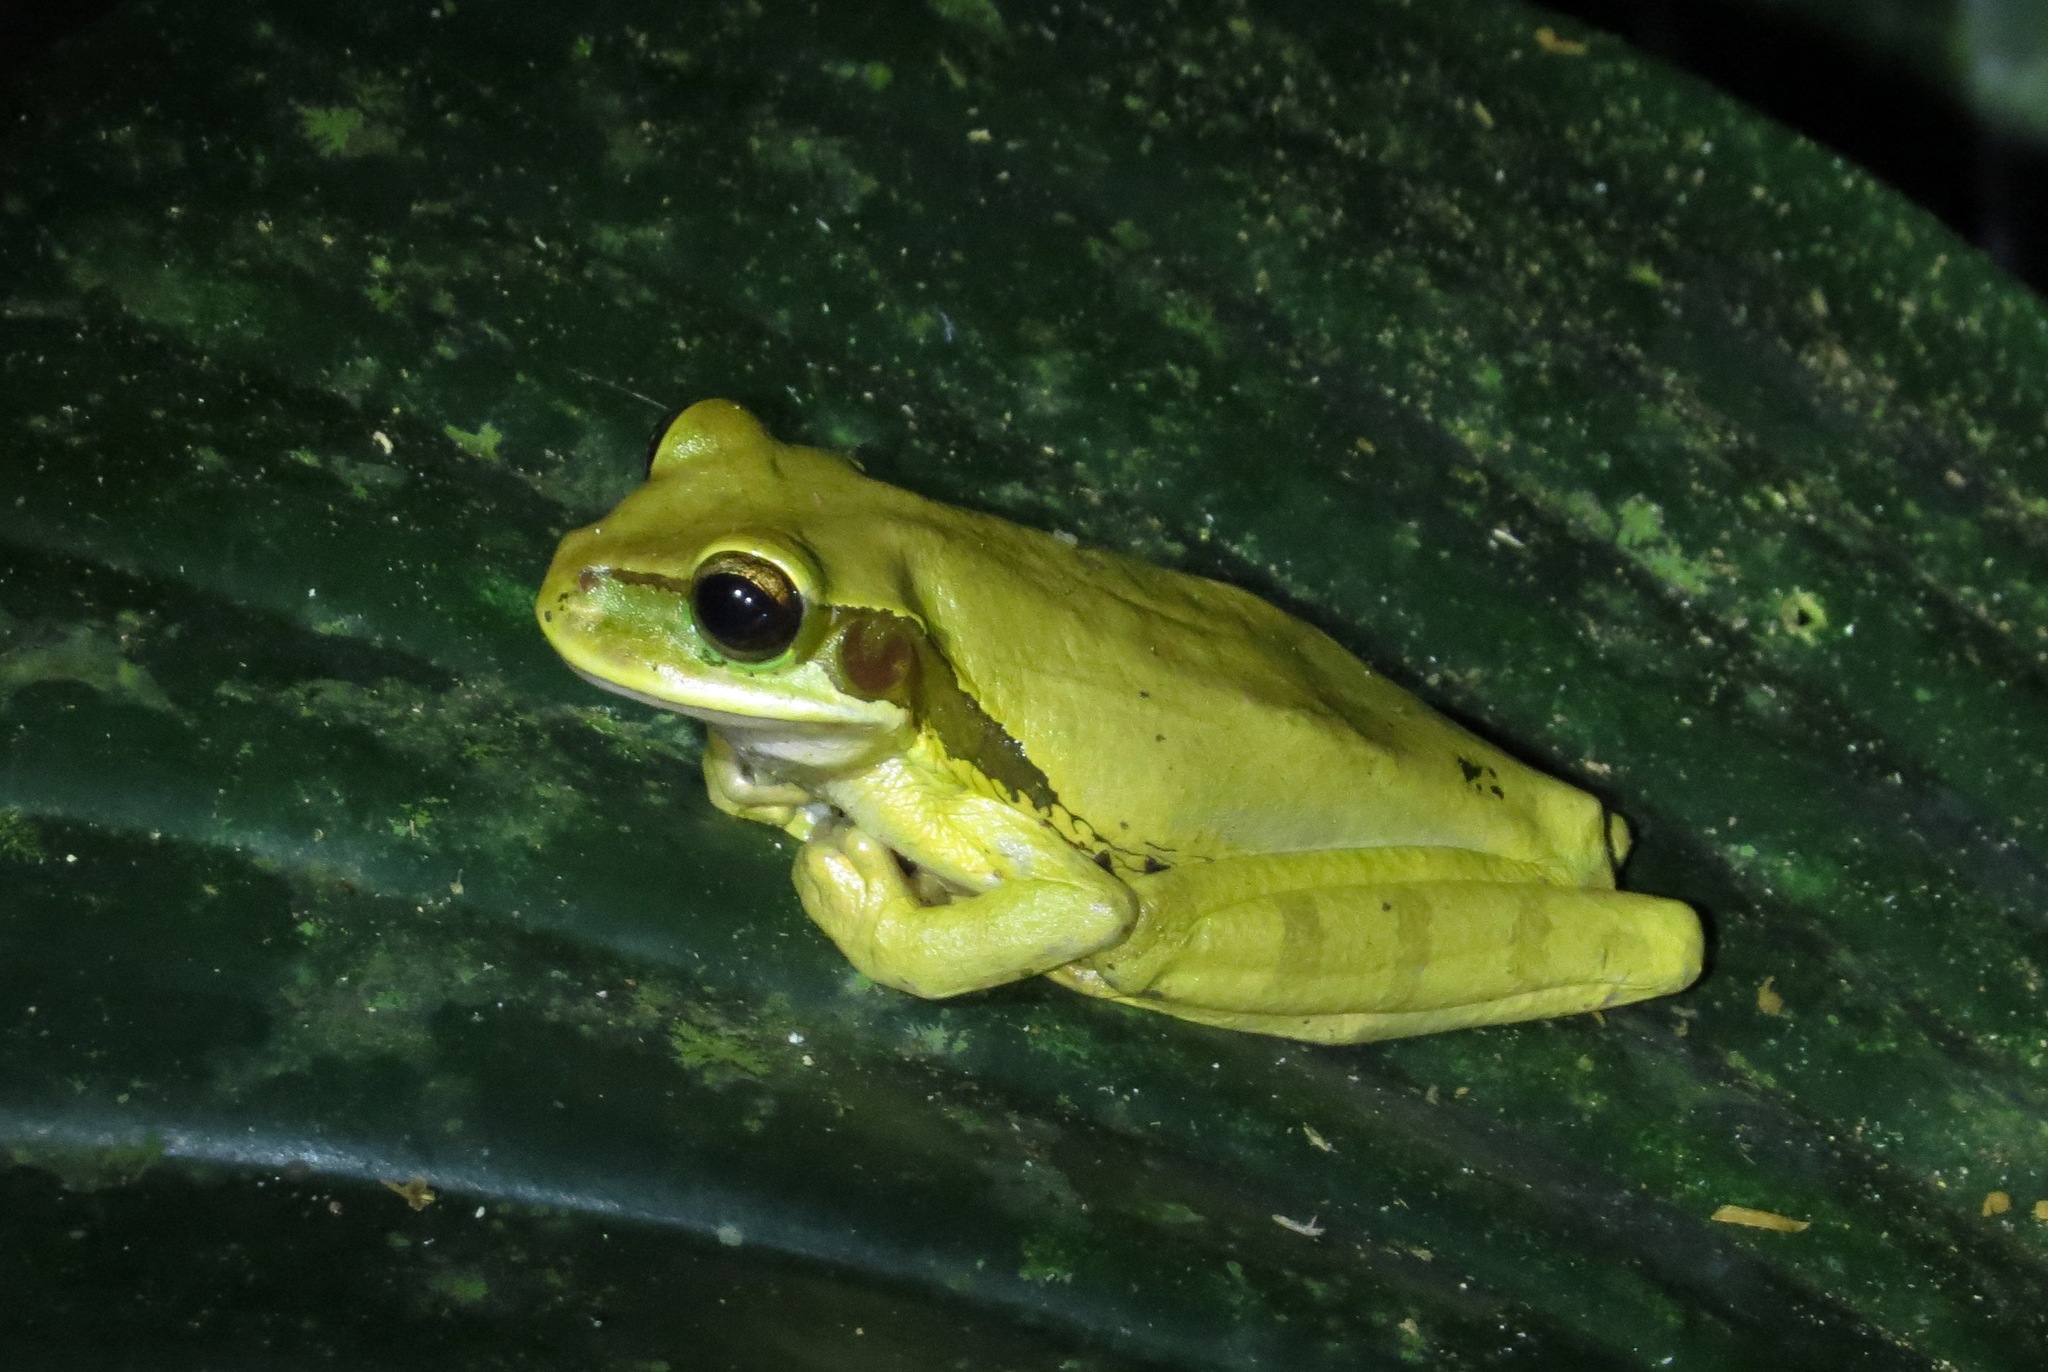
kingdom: Animalia
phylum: Chordata
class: Amphibia
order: Anura
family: Hylidae
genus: Smilisca
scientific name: Smilisca phaeota
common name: Central american smilisca
